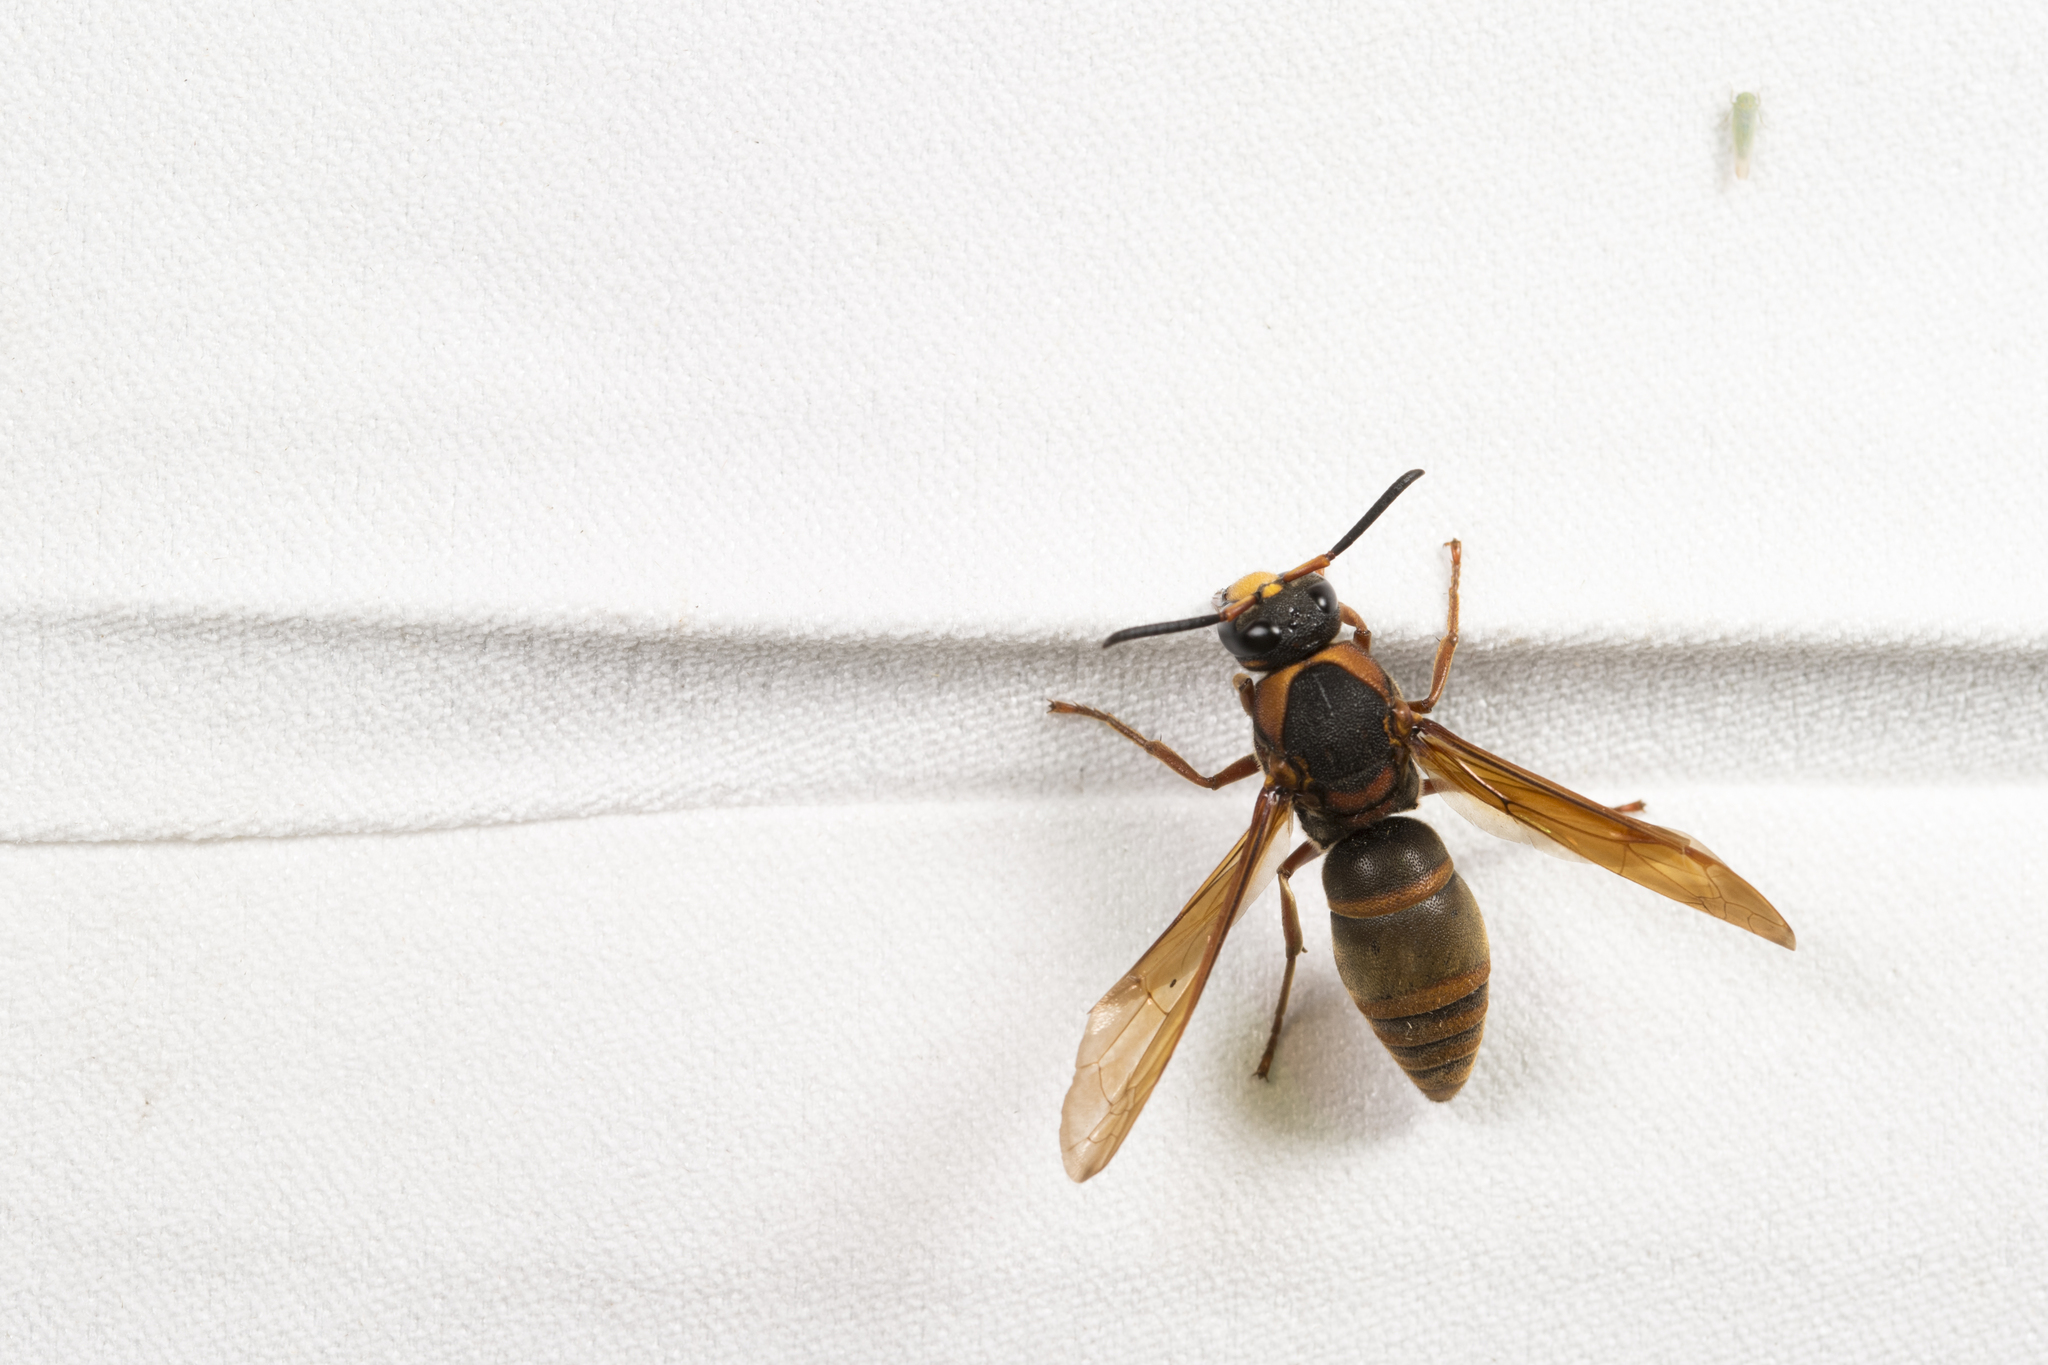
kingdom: Animalia
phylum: Arthropoda
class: Insecta
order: Hymenoptera
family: Eumenidae
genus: Anterhynchium
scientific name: Anterhynchium flavomarginatum
